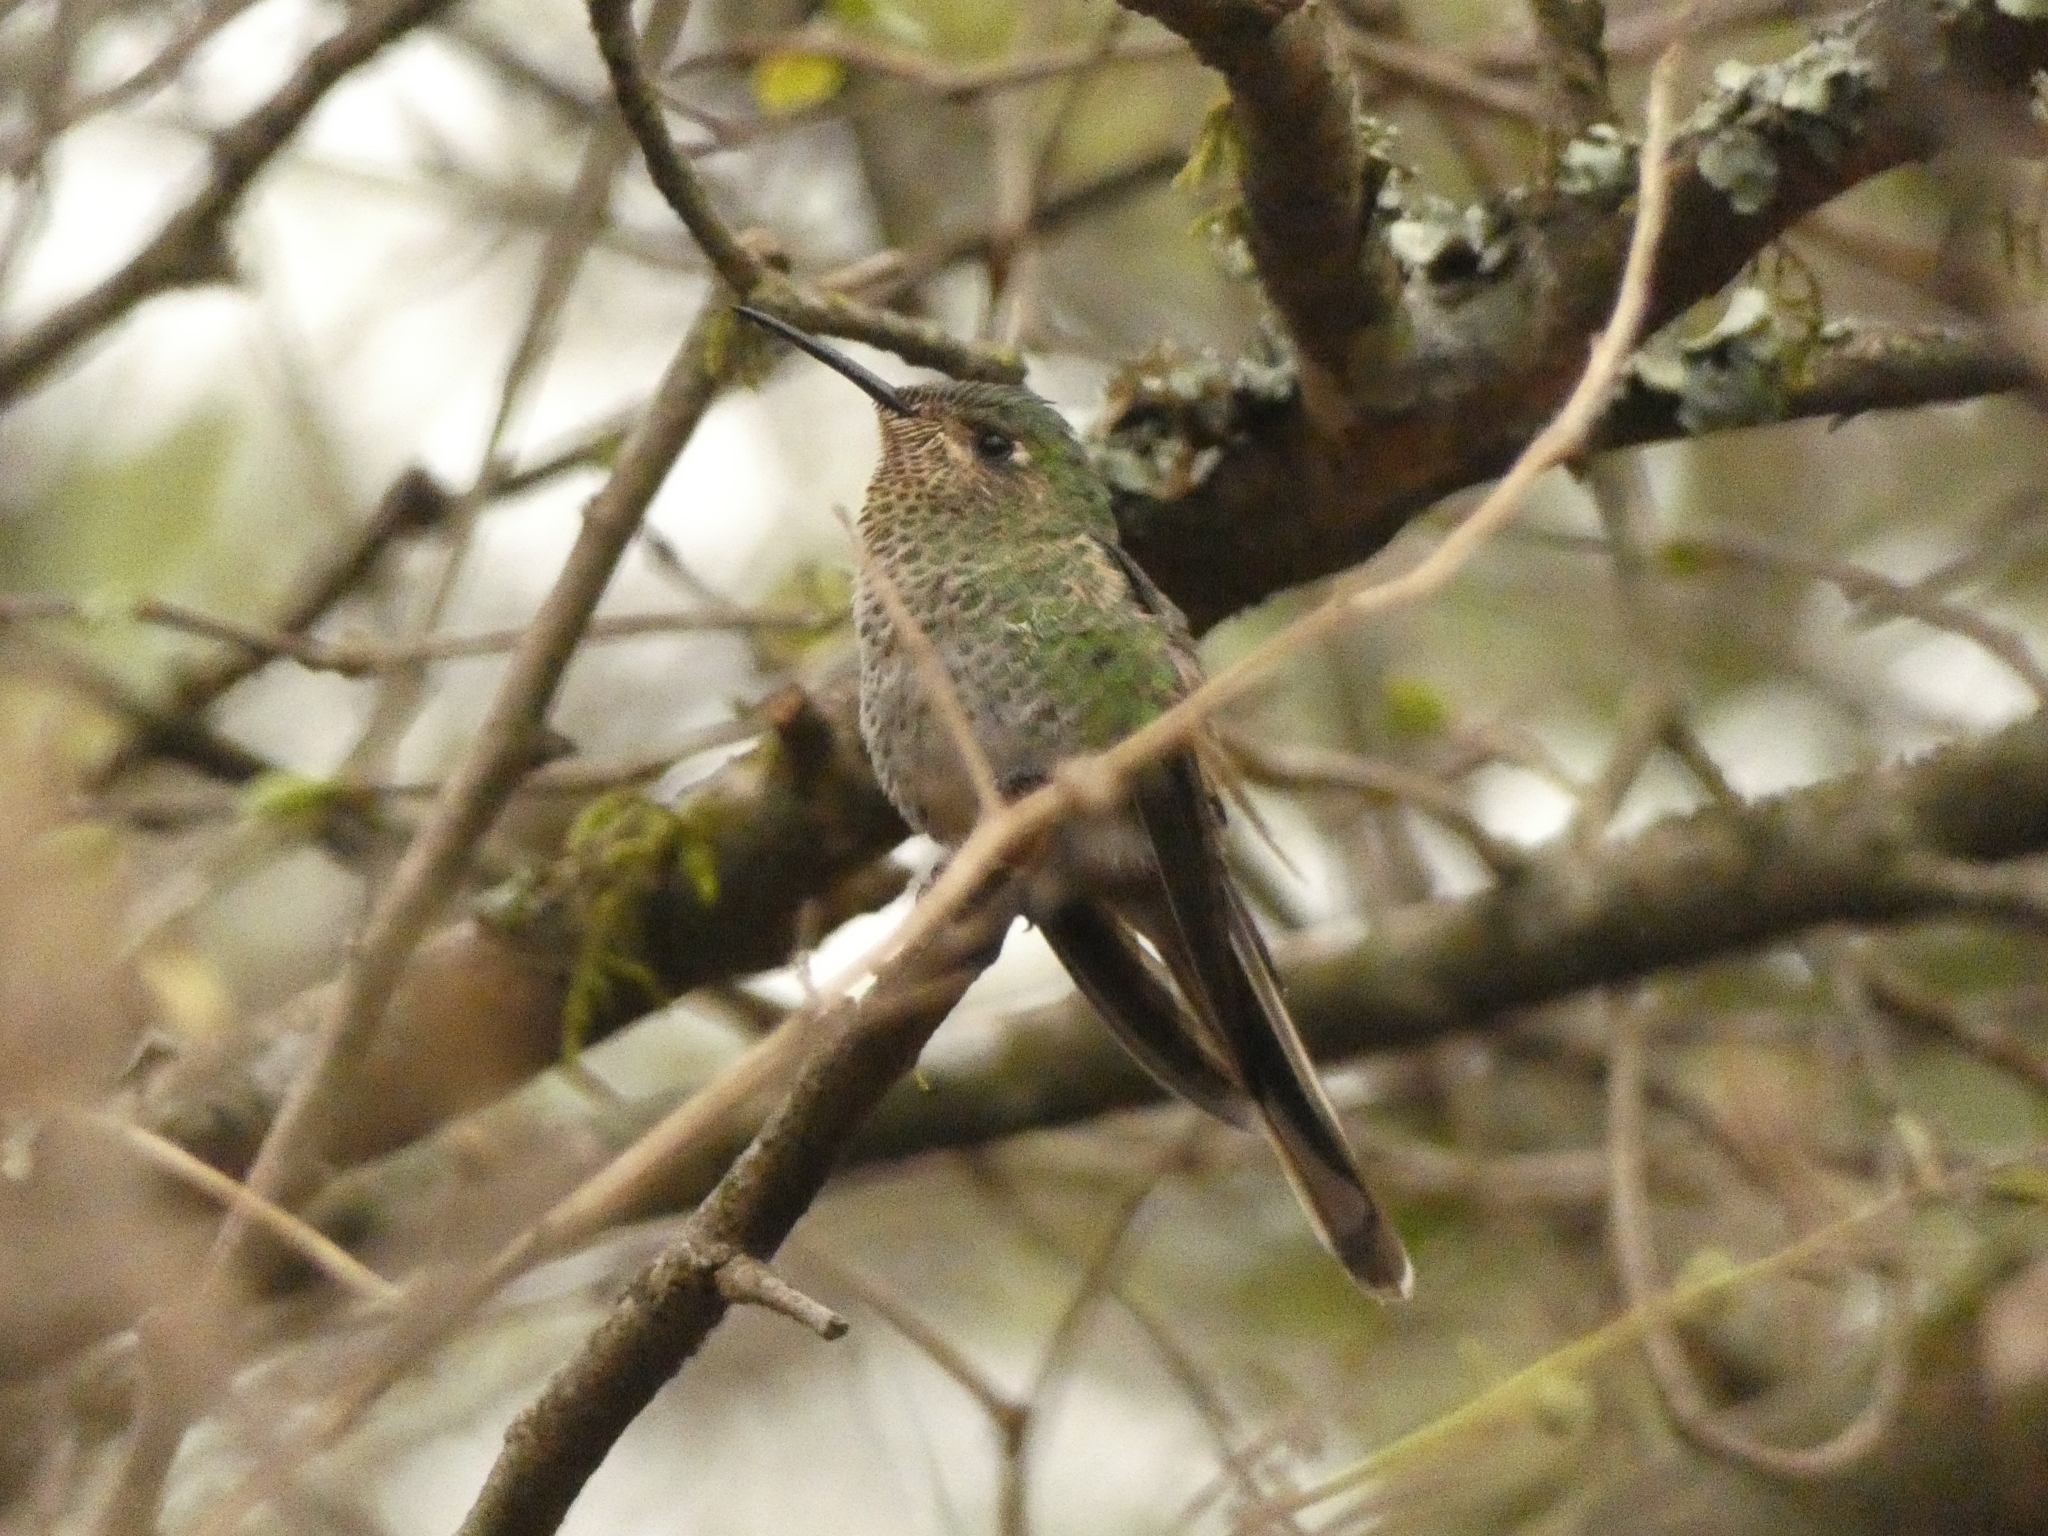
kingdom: Animalia
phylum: Chordata
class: Aves
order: Apodiformes
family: Trochilidae
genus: Sappho
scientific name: Sappho sparganurus
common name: Red-tailed comet
